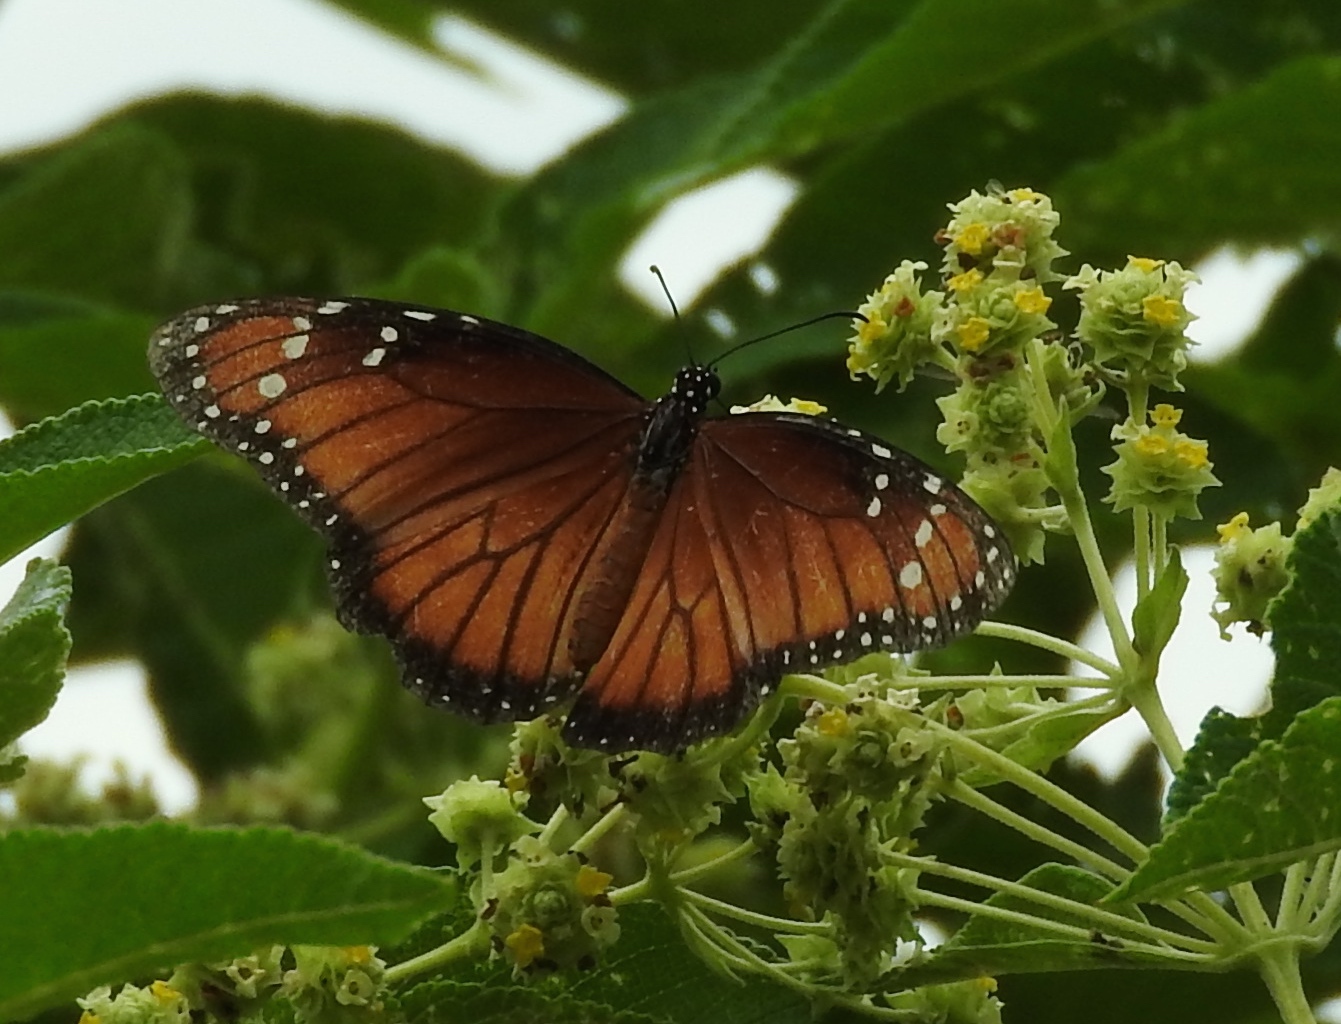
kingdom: Animalia
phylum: Arthropoda
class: Insecta
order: Lepidoptera
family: Nymphalidae
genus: Danaus
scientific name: Danaus eresimus
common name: Soldier
